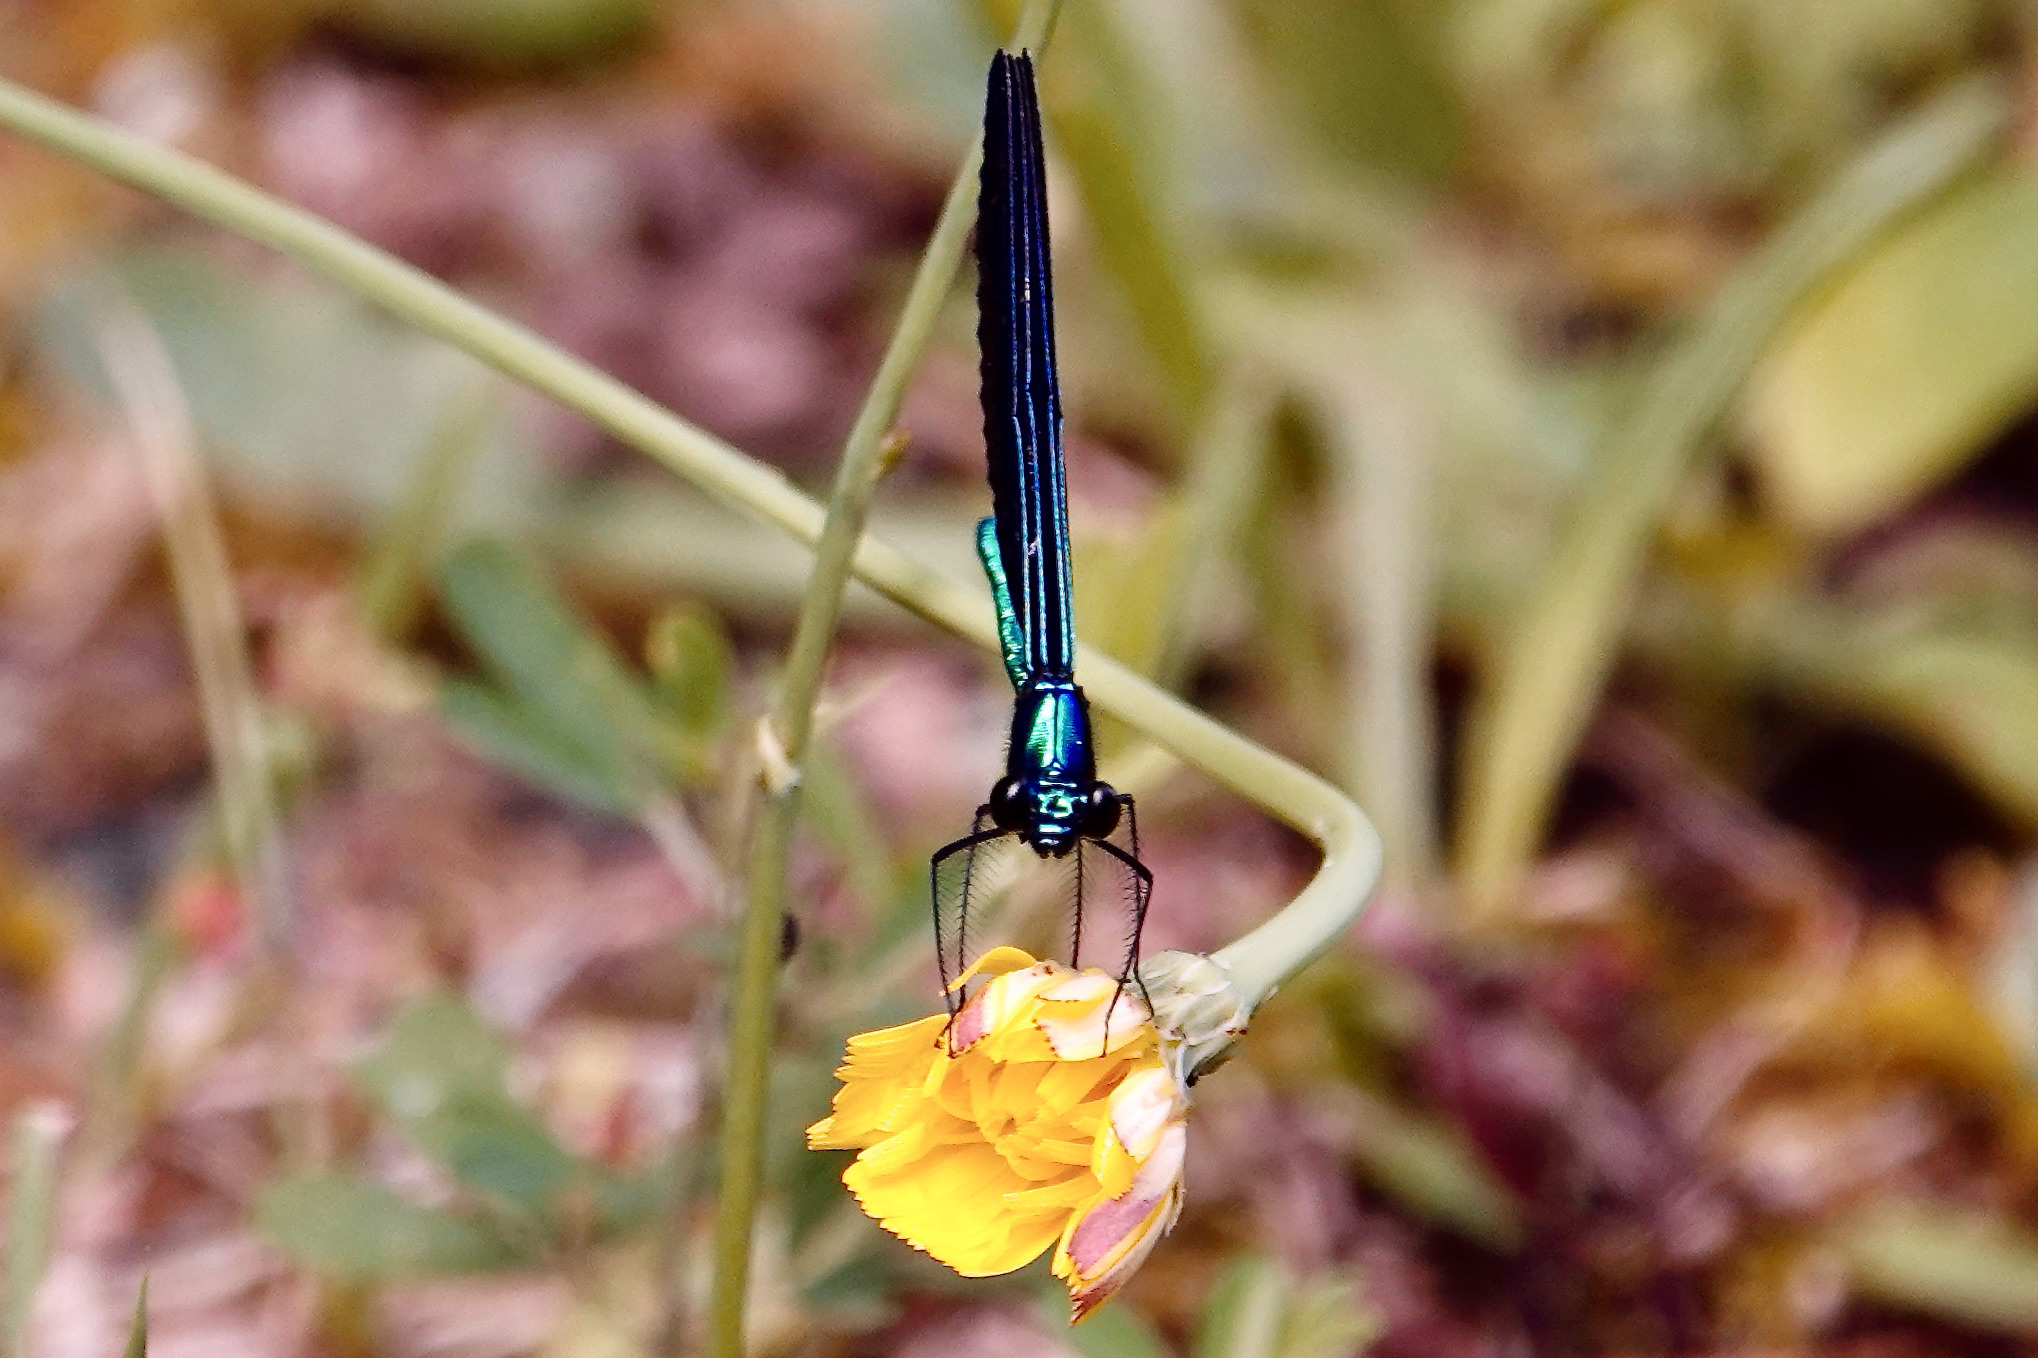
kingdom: Animalia
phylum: Arthropoda
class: Insecta
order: Odonata
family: Calopterygidae
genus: Calopteryx
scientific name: Calopteryx maculata
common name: Ebony jewelwing
